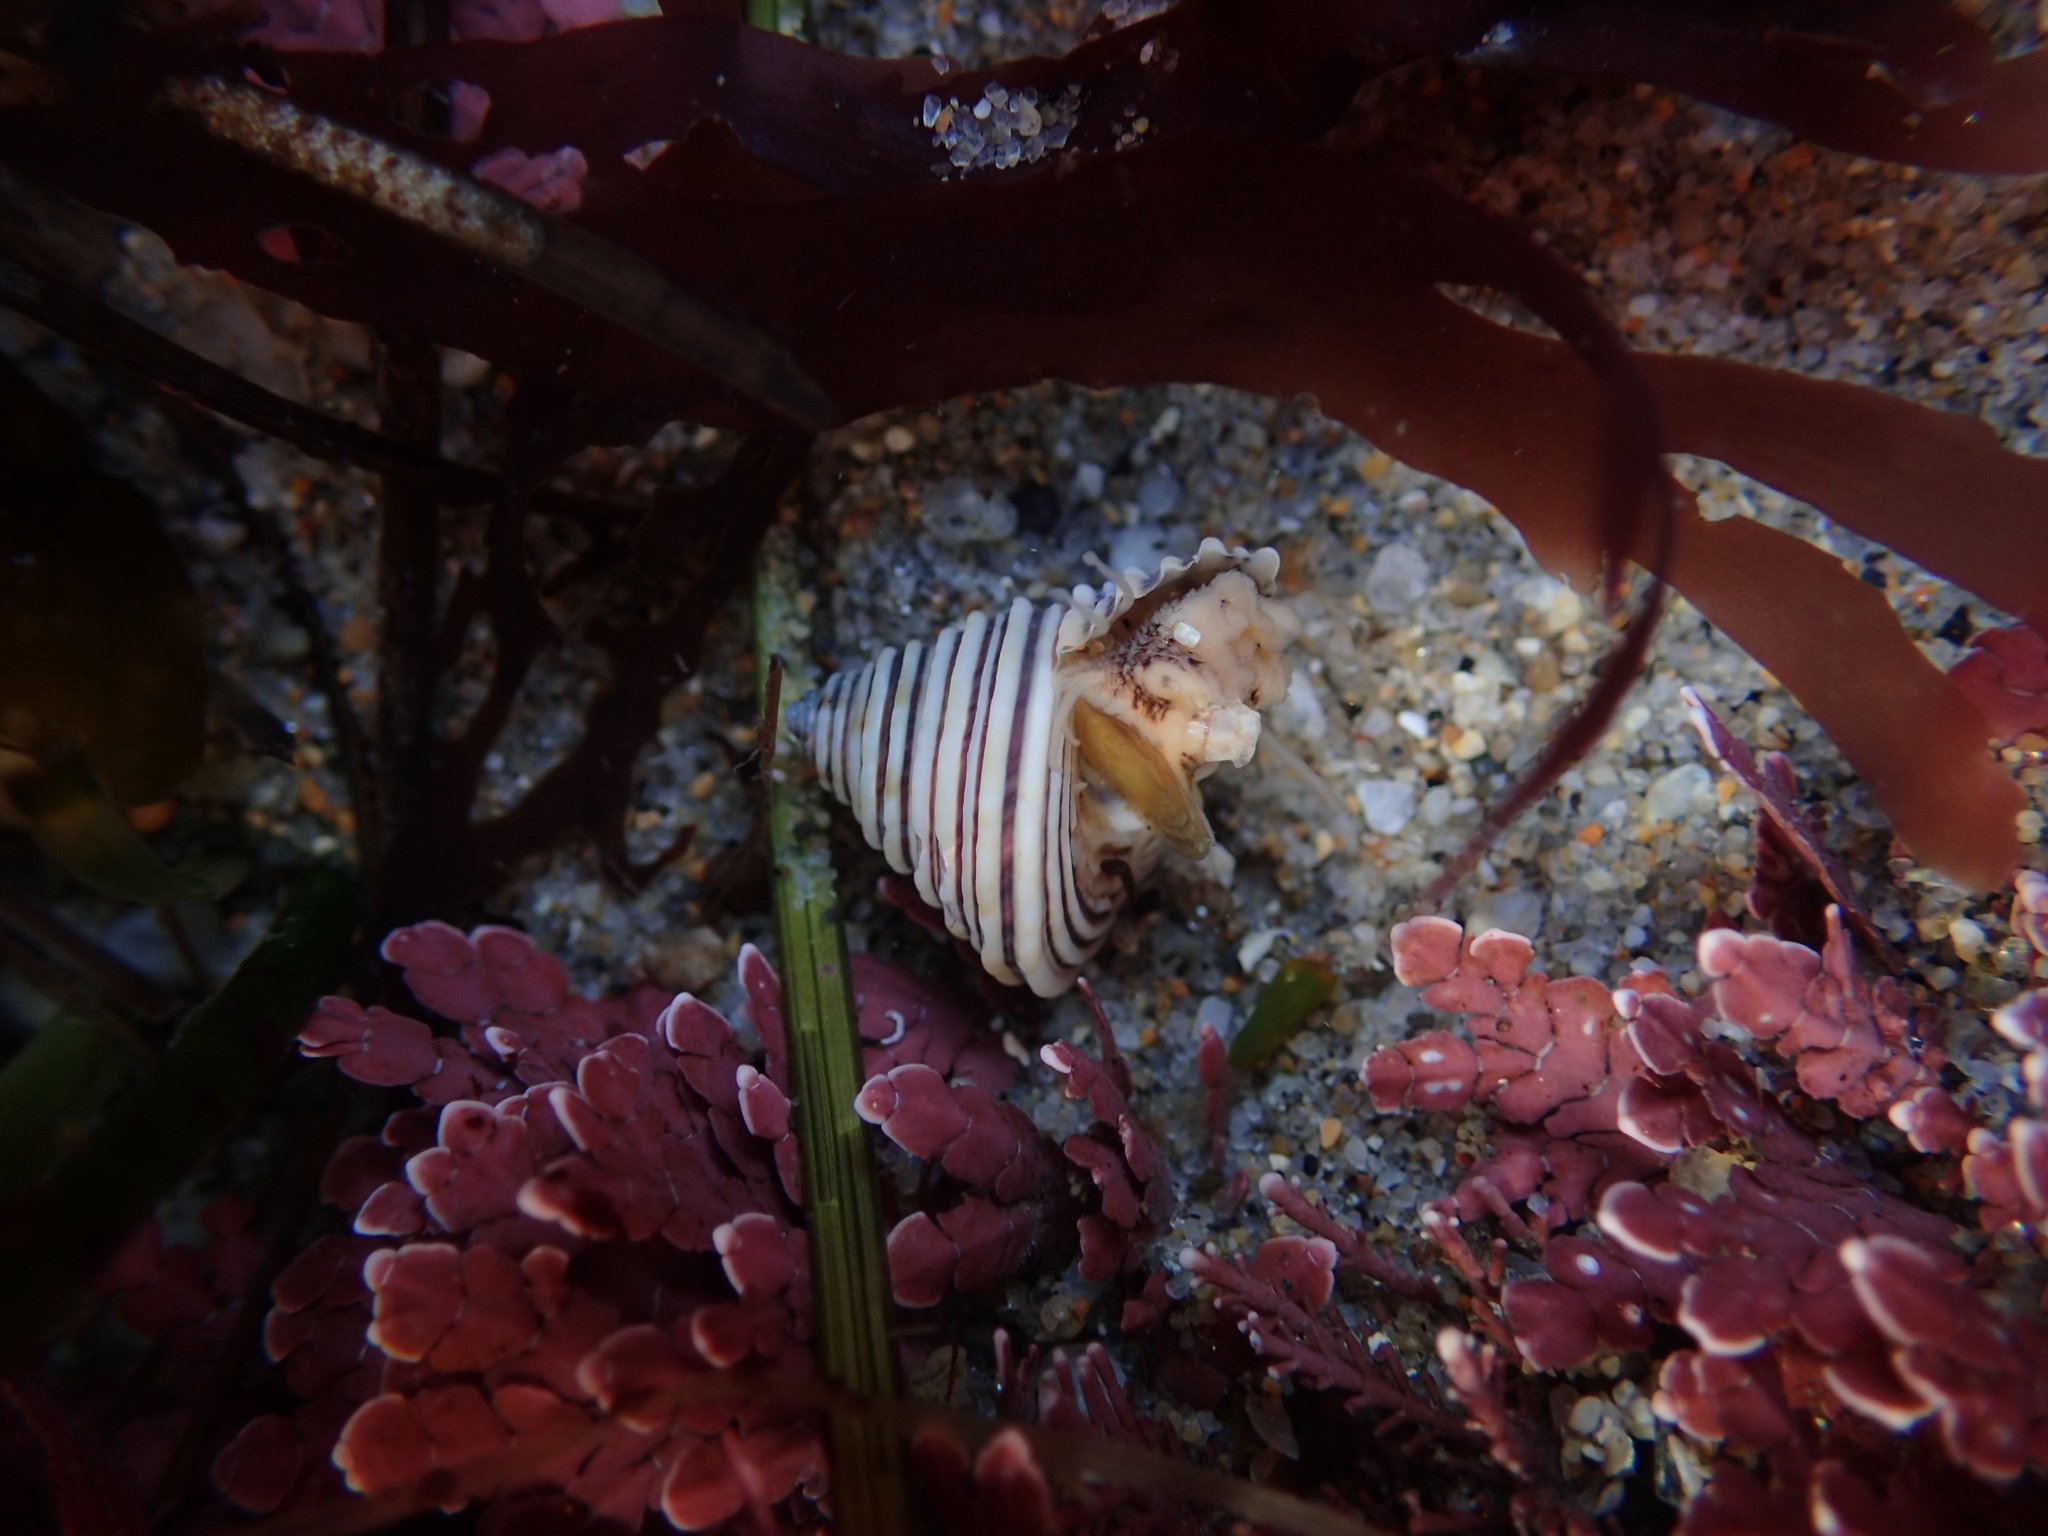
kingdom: Animalia
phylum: Mollusca
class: Gastropoda
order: Trochida
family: Calliostomatidae
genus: Calliostoma
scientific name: Calliostoma canaliculatum
